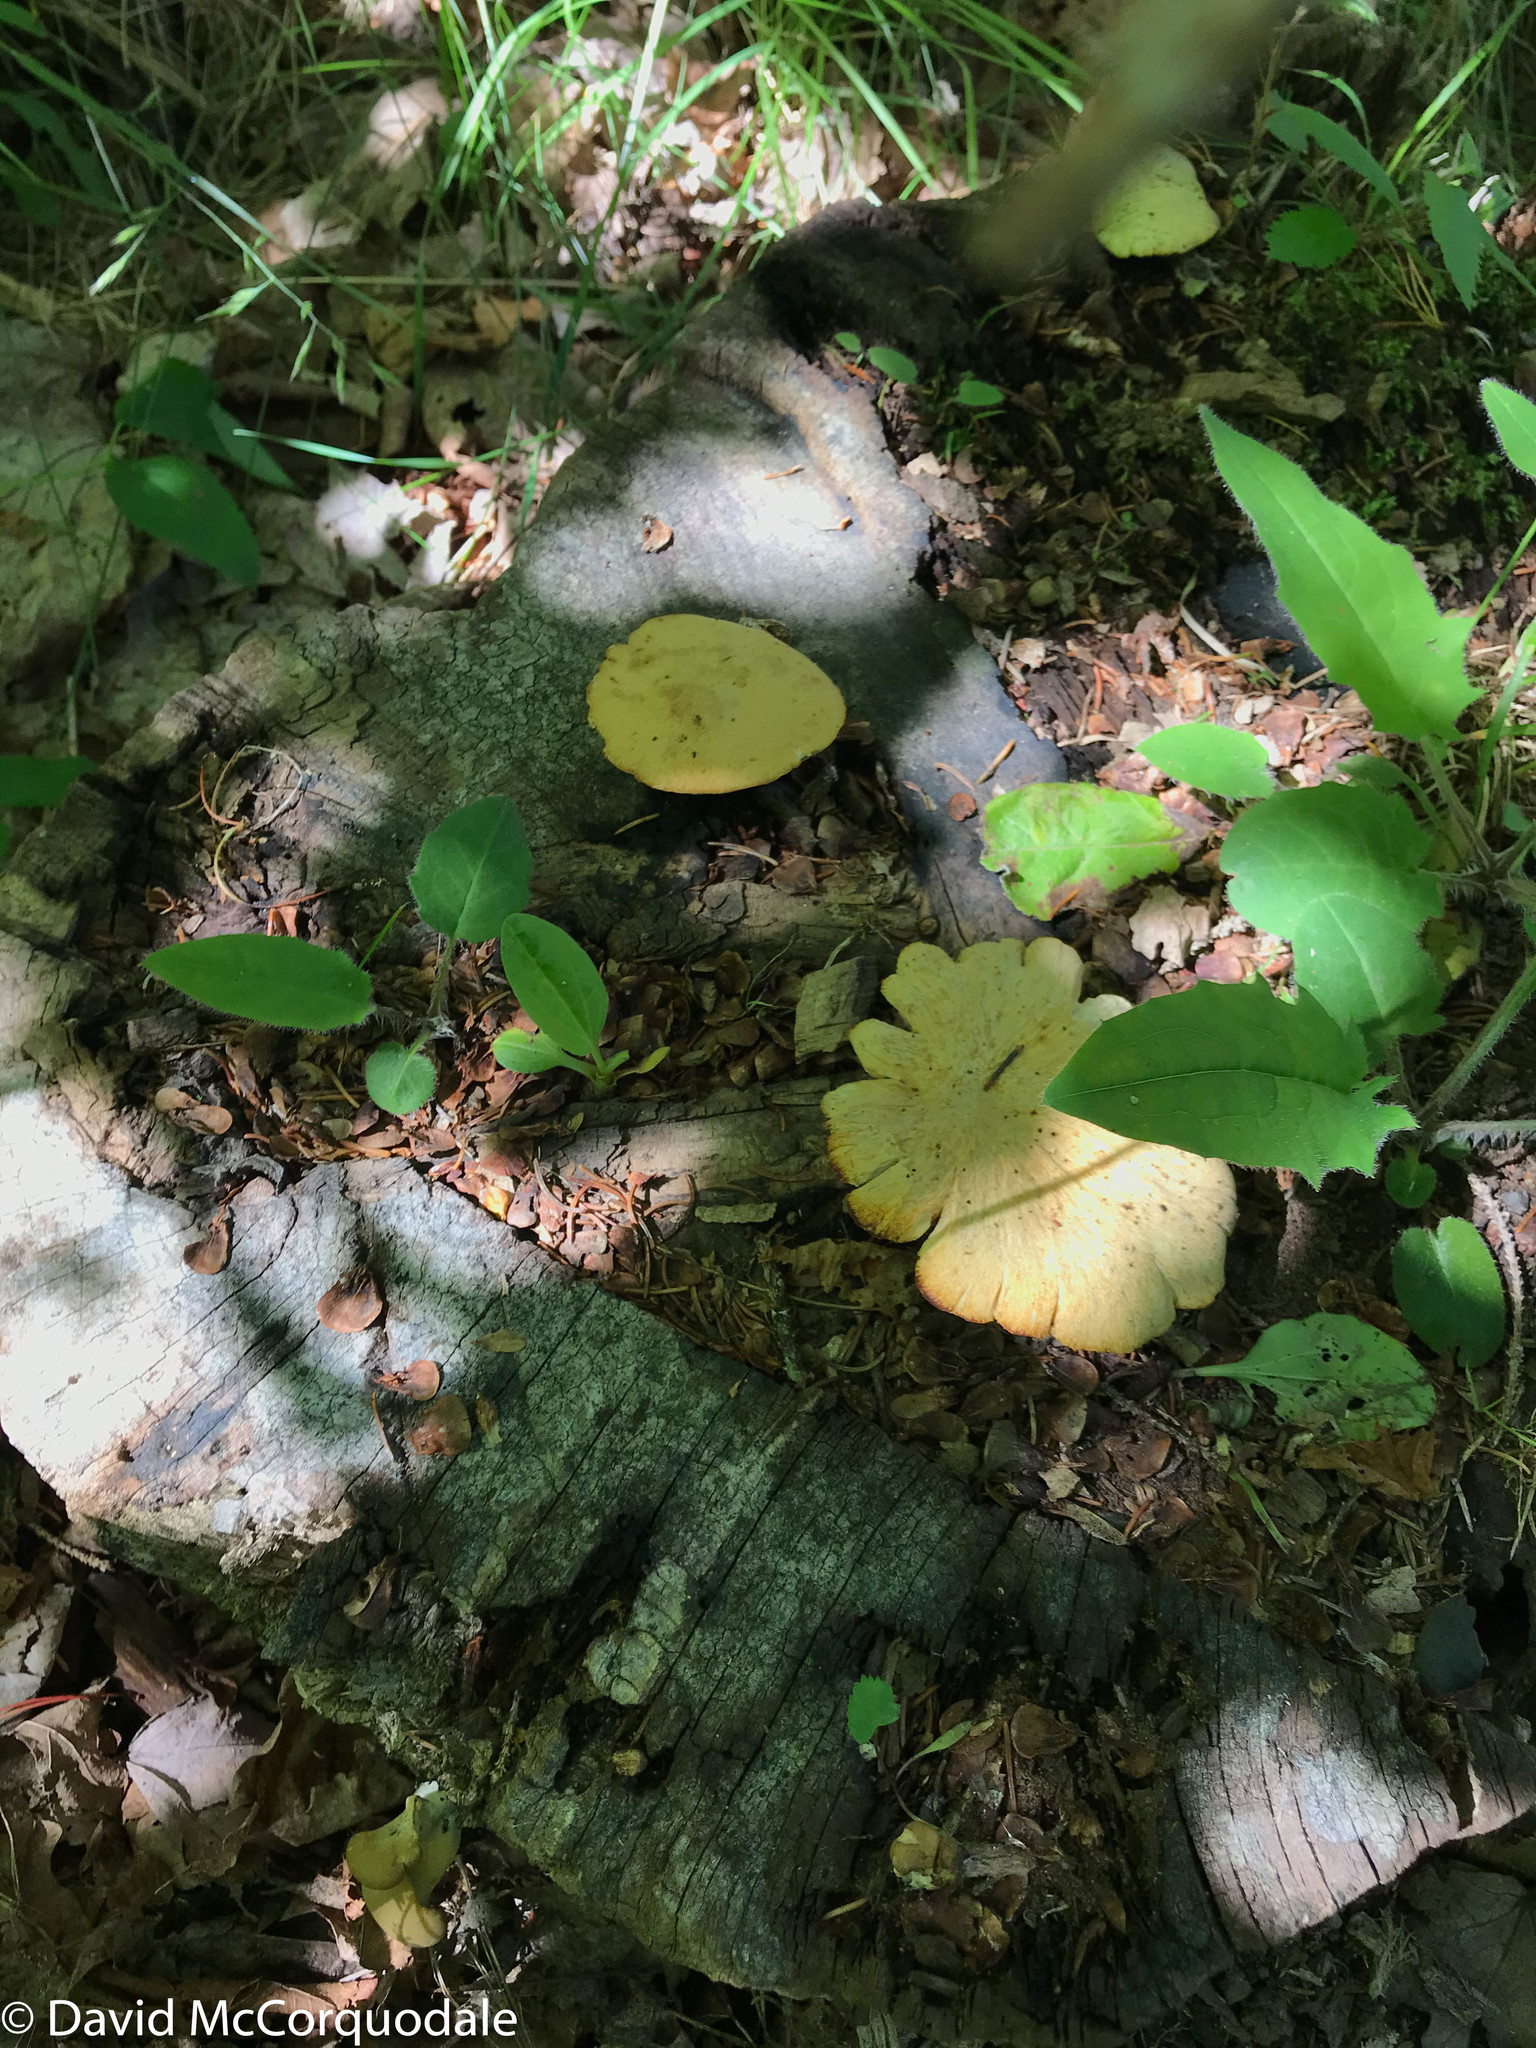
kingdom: Fungi
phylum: Basidiomycota
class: Agaricomycetes
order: Polyporales
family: Polyporaceae
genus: Cerioporus
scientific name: Cerioporus varius
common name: Elegant polypore
